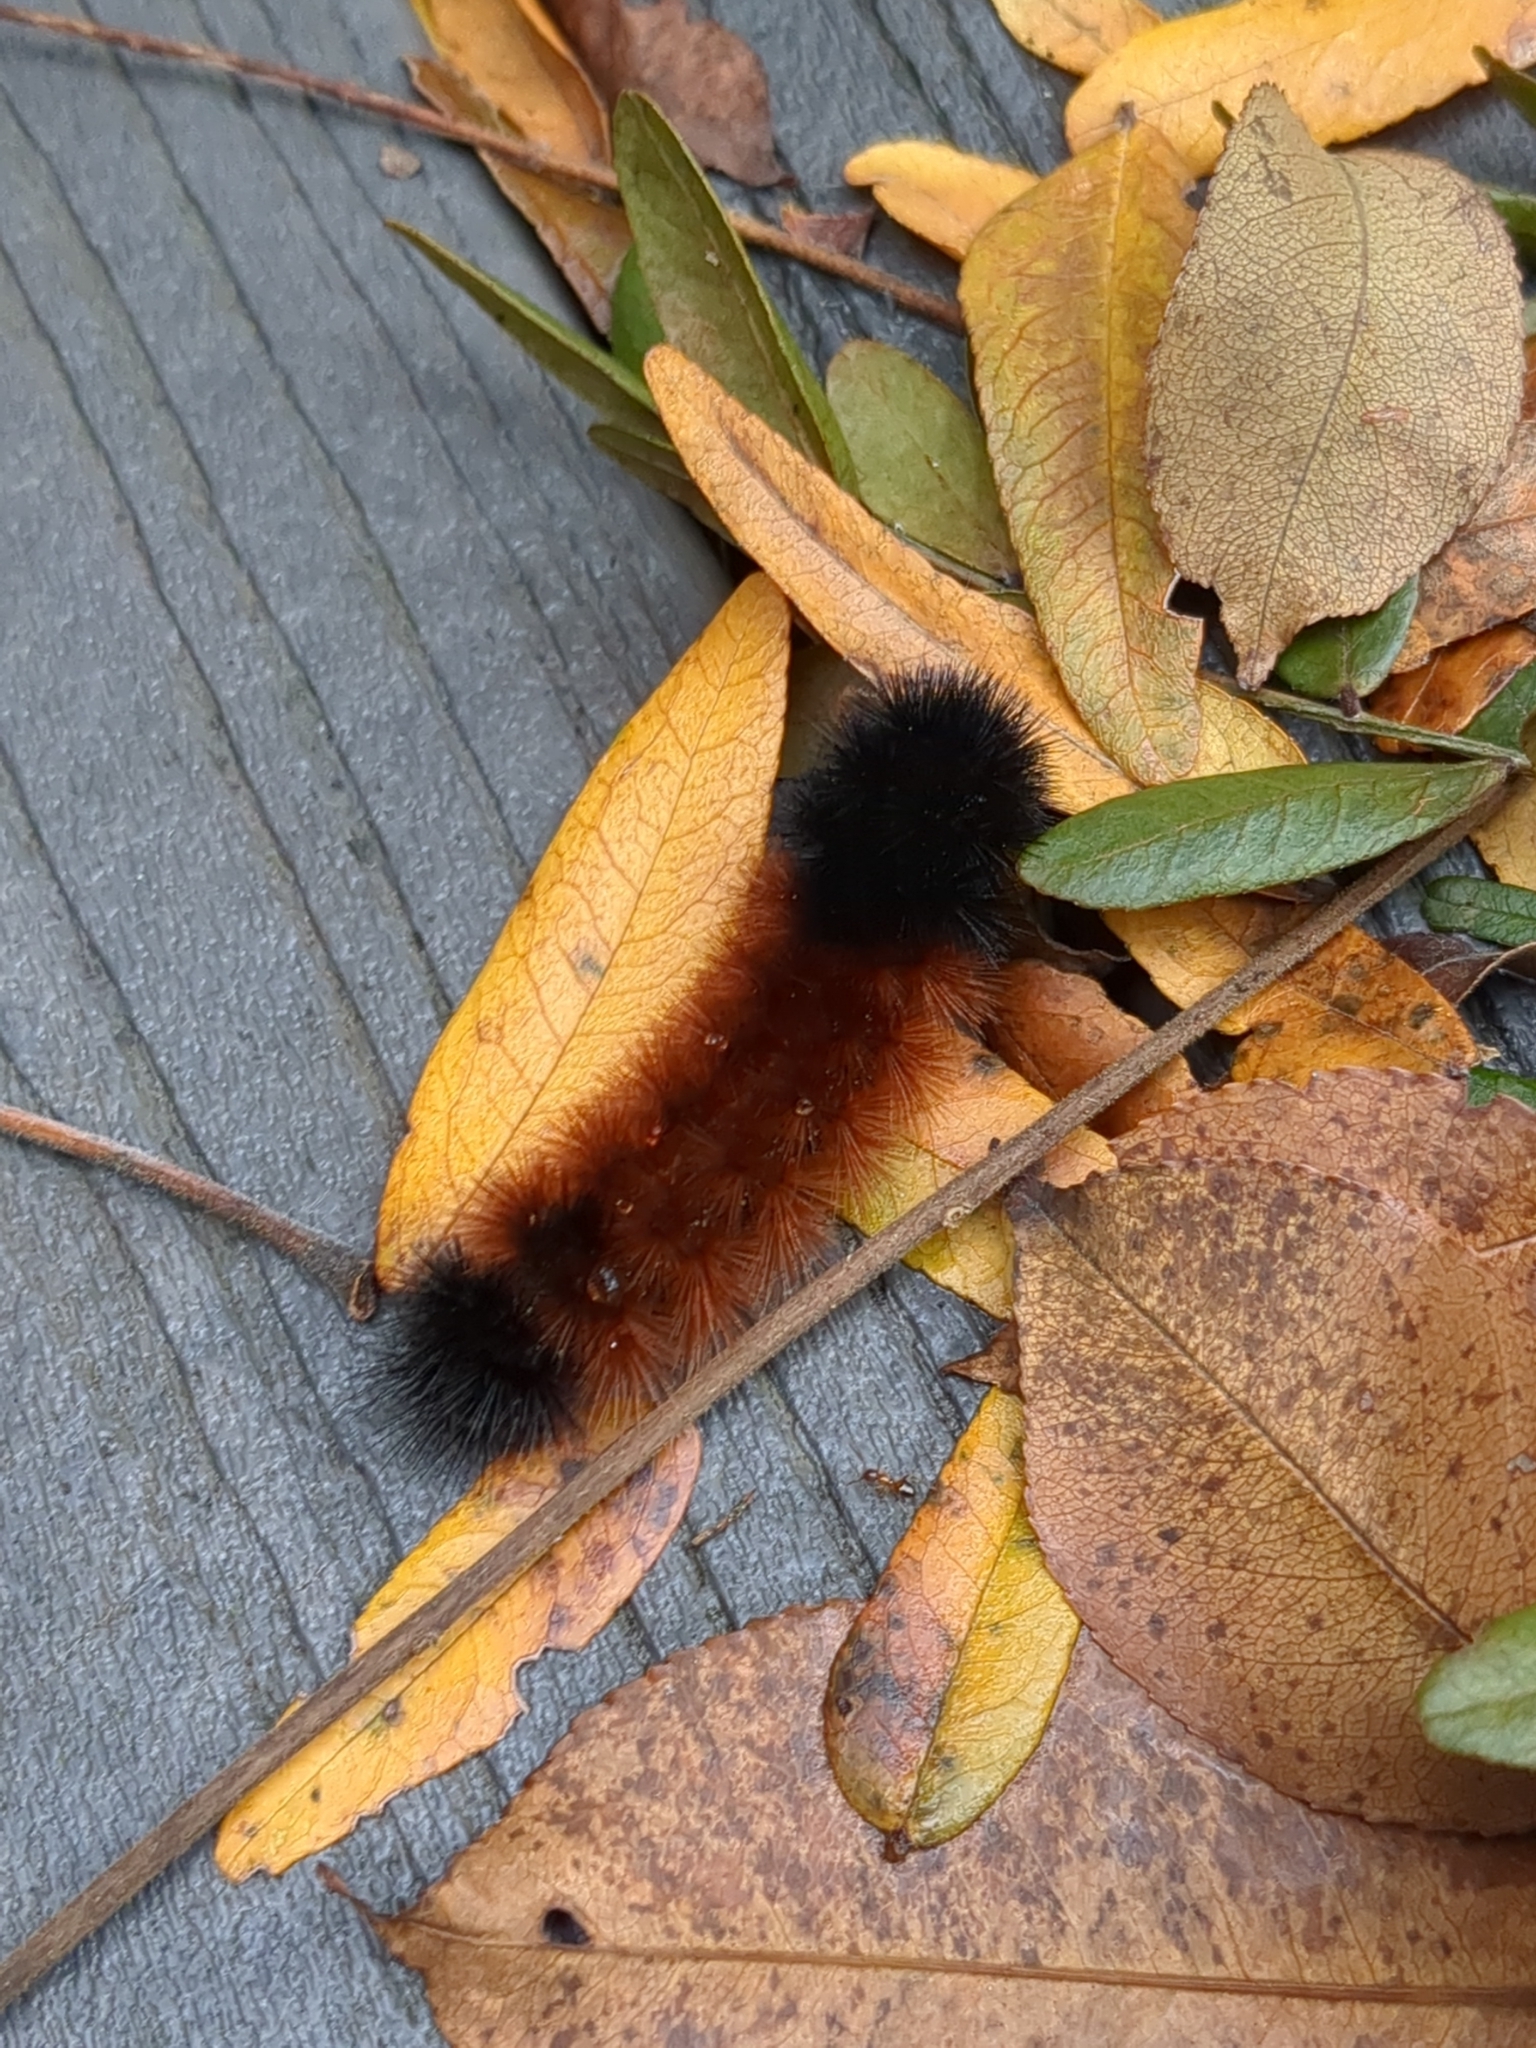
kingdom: Animalia
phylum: Arthropoda
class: Insecta
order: Lepidoptera
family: Erebidae
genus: Pyrrharctia
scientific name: Pyrrharctia isabella
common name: Isabella tiger moth
